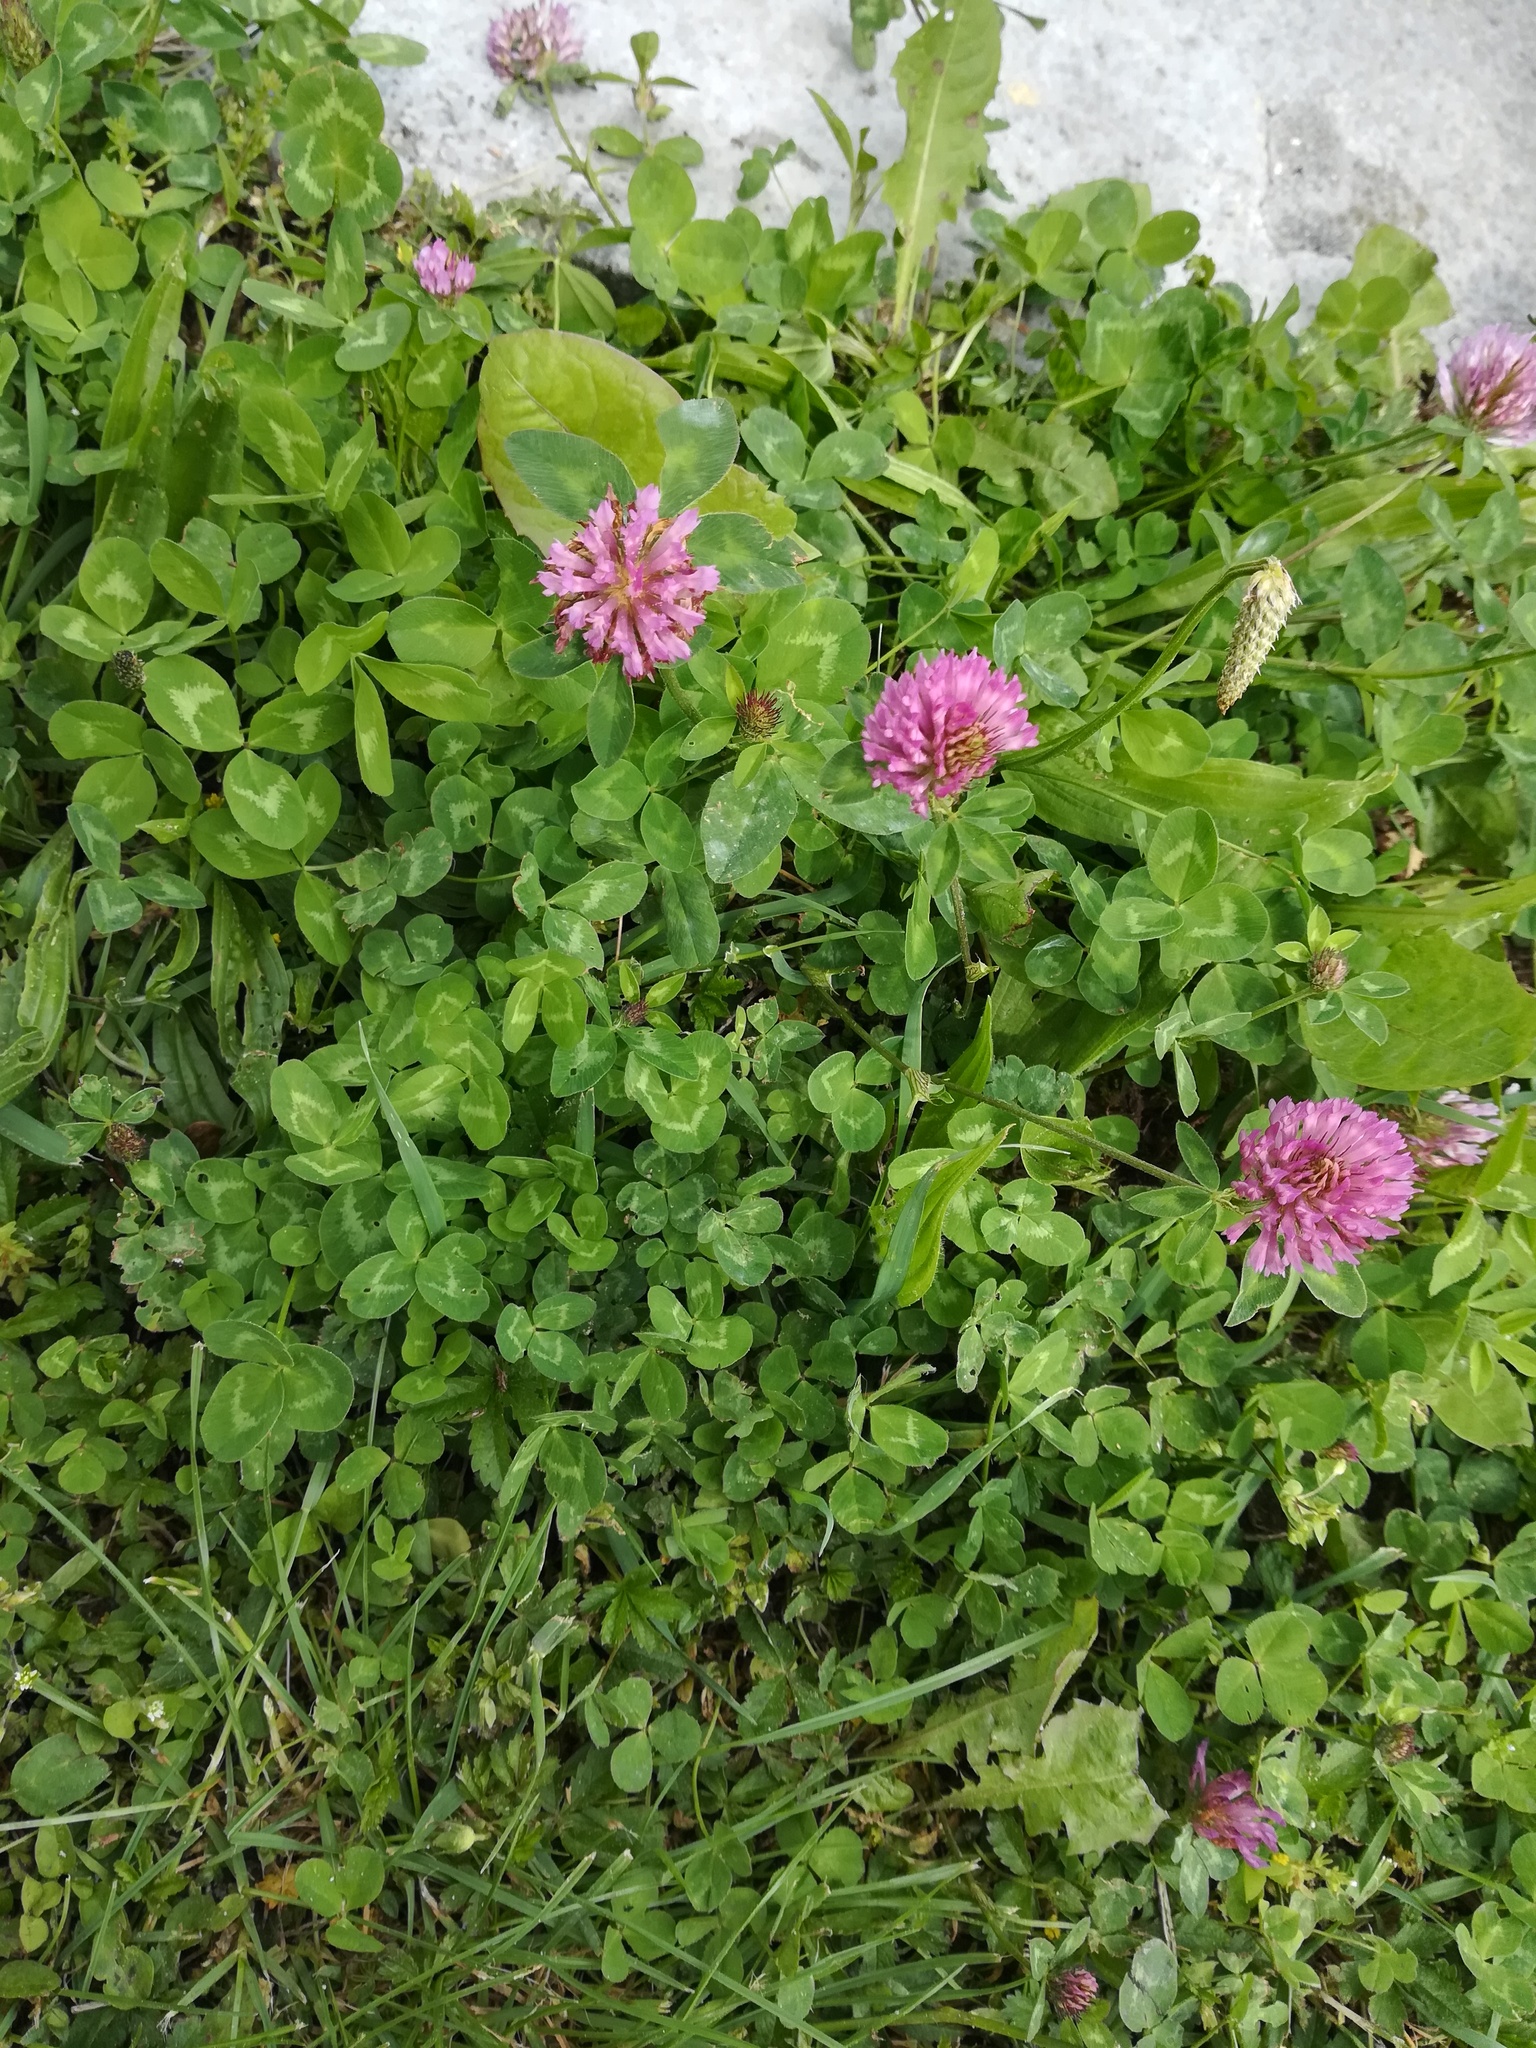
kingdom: Plantae
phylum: Tracheophyta
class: Magnoliopsida
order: Fabales
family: Fabaceae
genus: Trifolium
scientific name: Trifolium pratense
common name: Red clover
